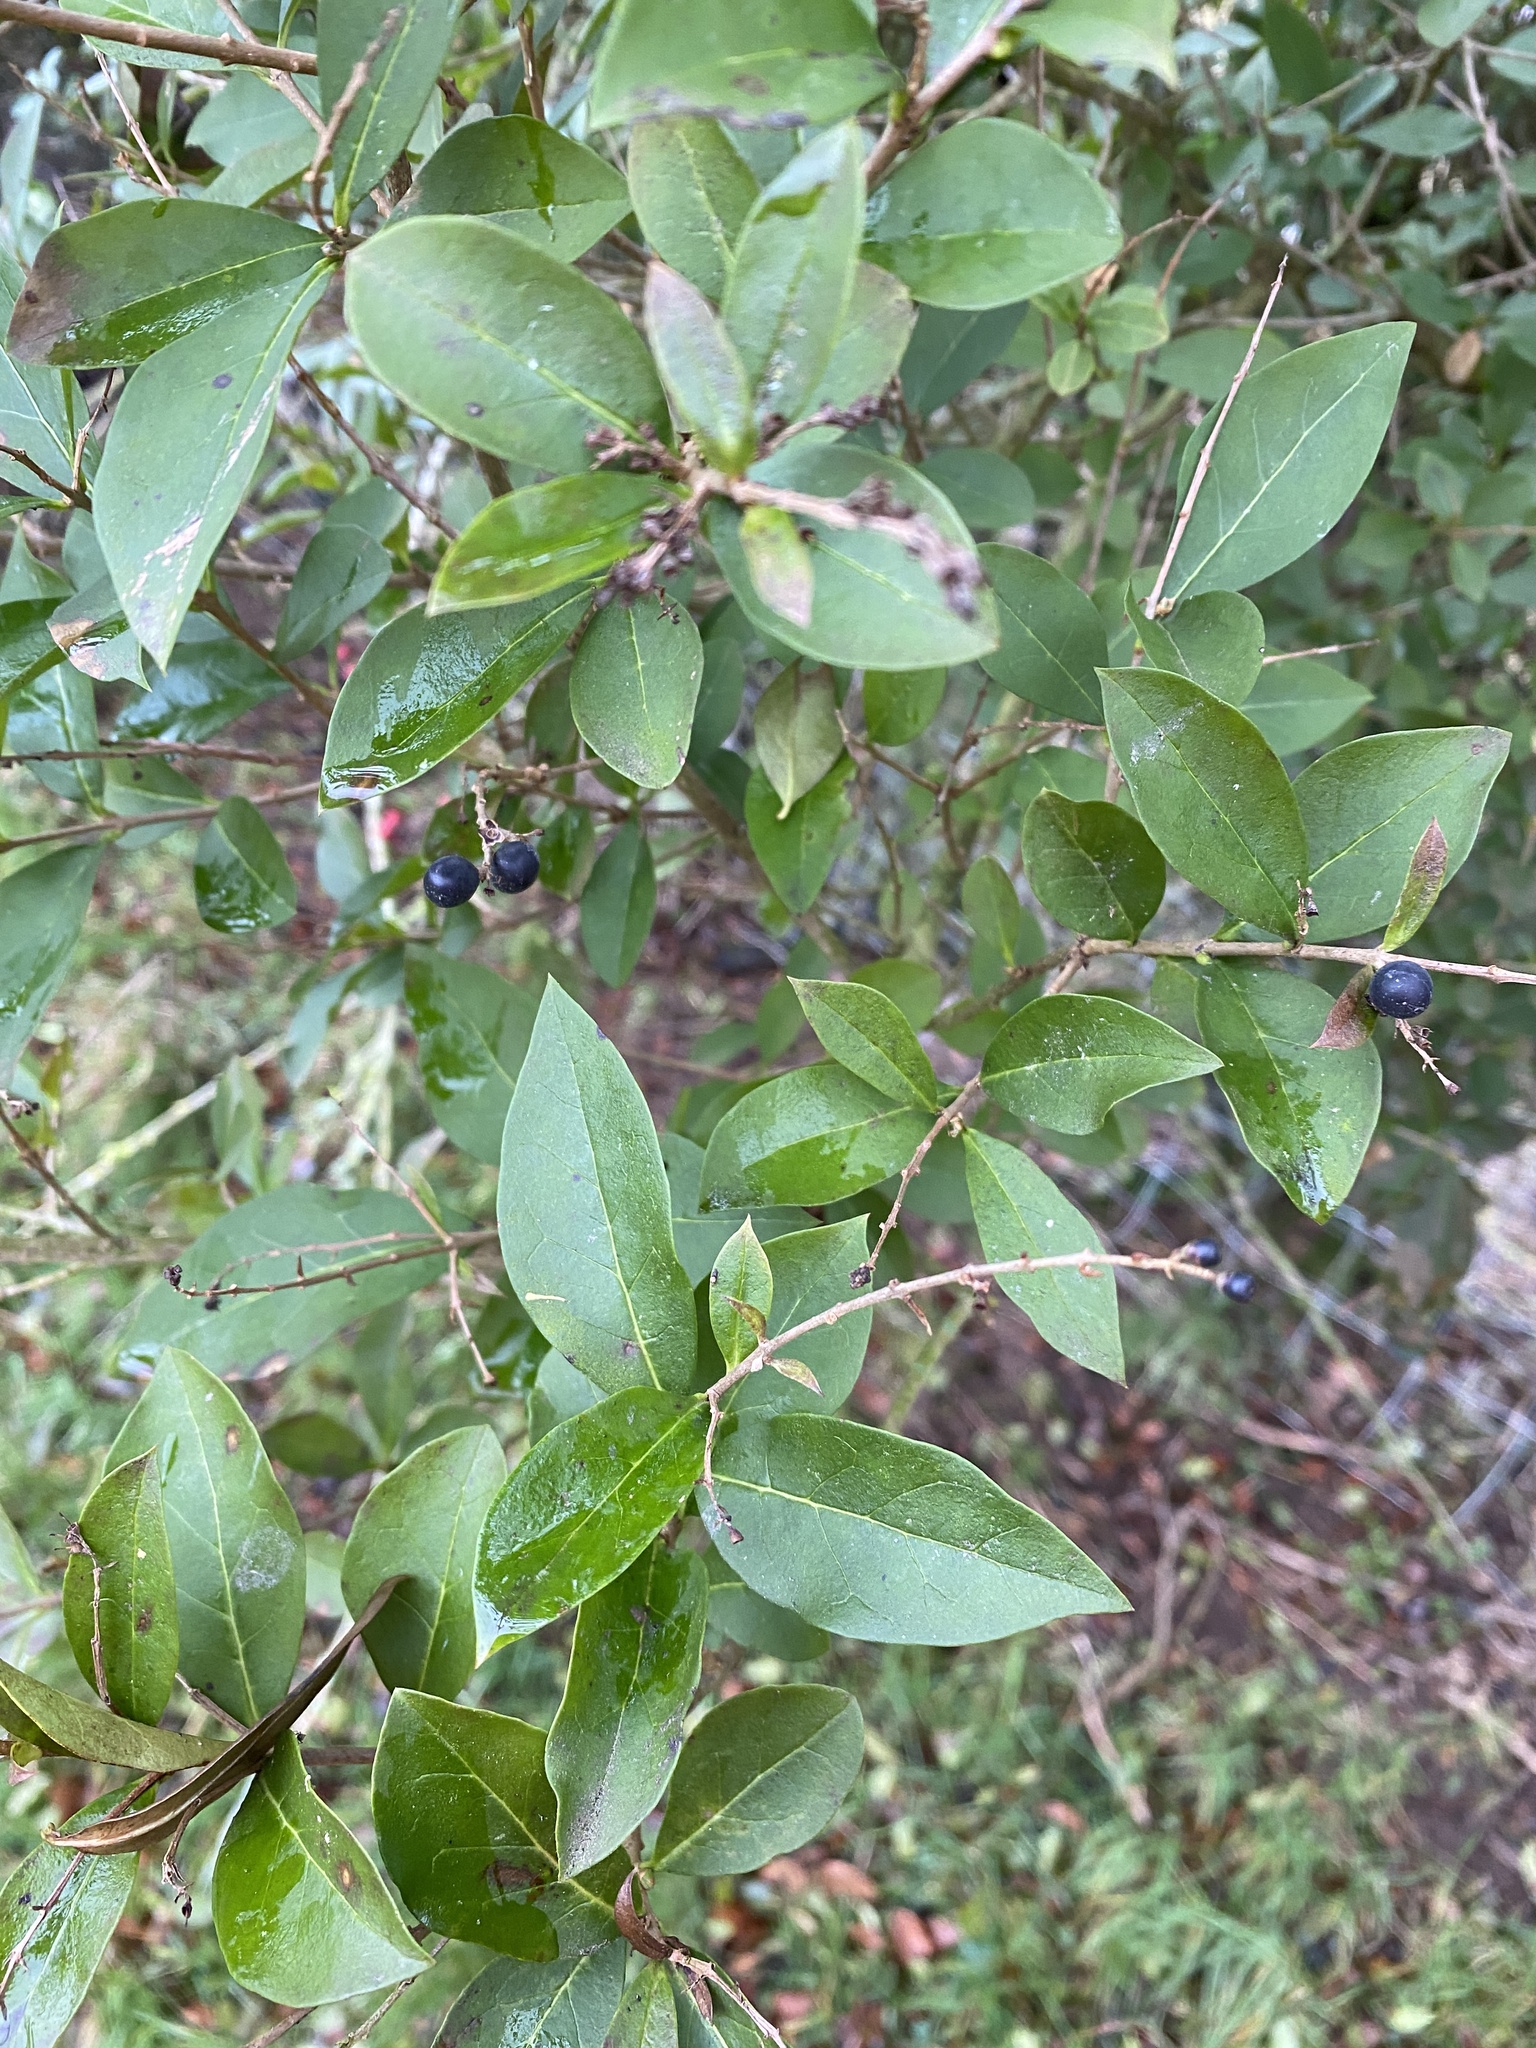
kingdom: Plantae
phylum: Tracheophyta
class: Magnoliopsida
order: Lamiales
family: Oleaceae
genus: Ligustrum
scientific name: Ligustrum ovalifolium
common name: California privet
